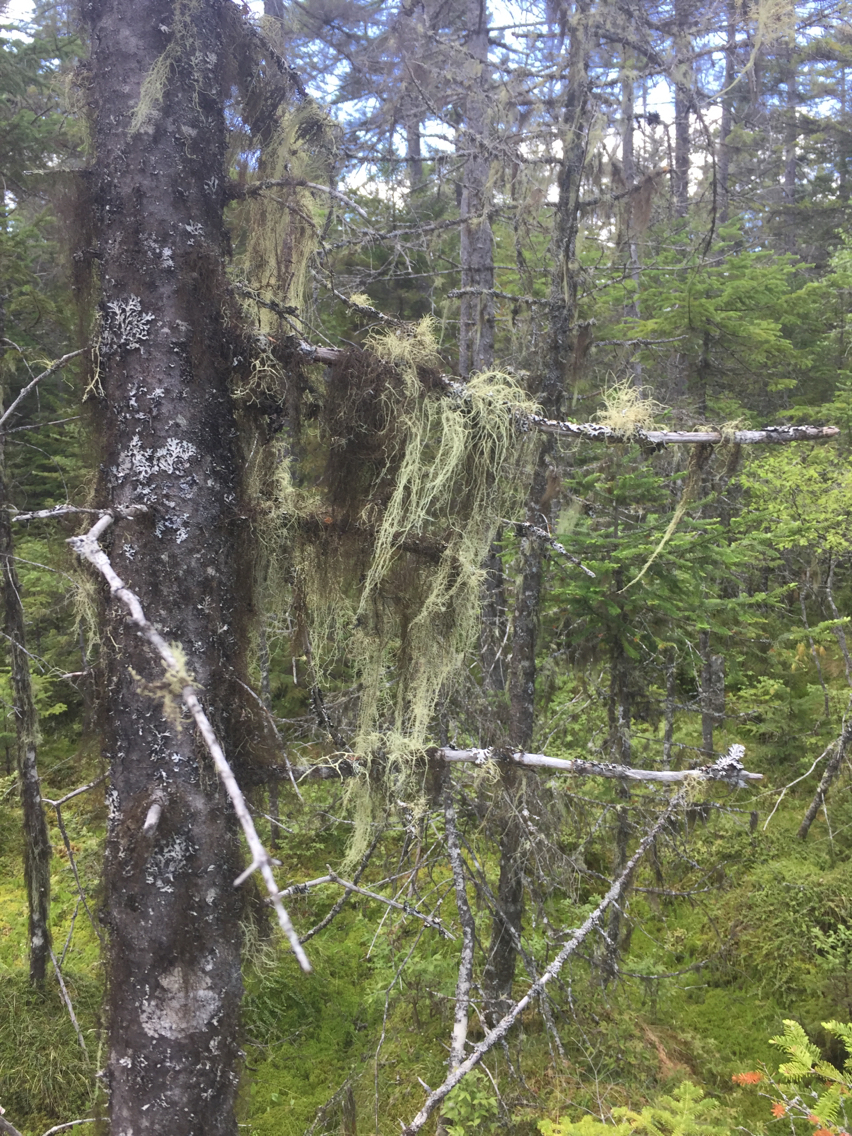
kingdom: Plantae
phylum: Tracheophyta
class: Pinopsida
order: Pinales
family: Pinaceae
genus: Picea
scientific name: Picea mariana
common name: Black spruce
